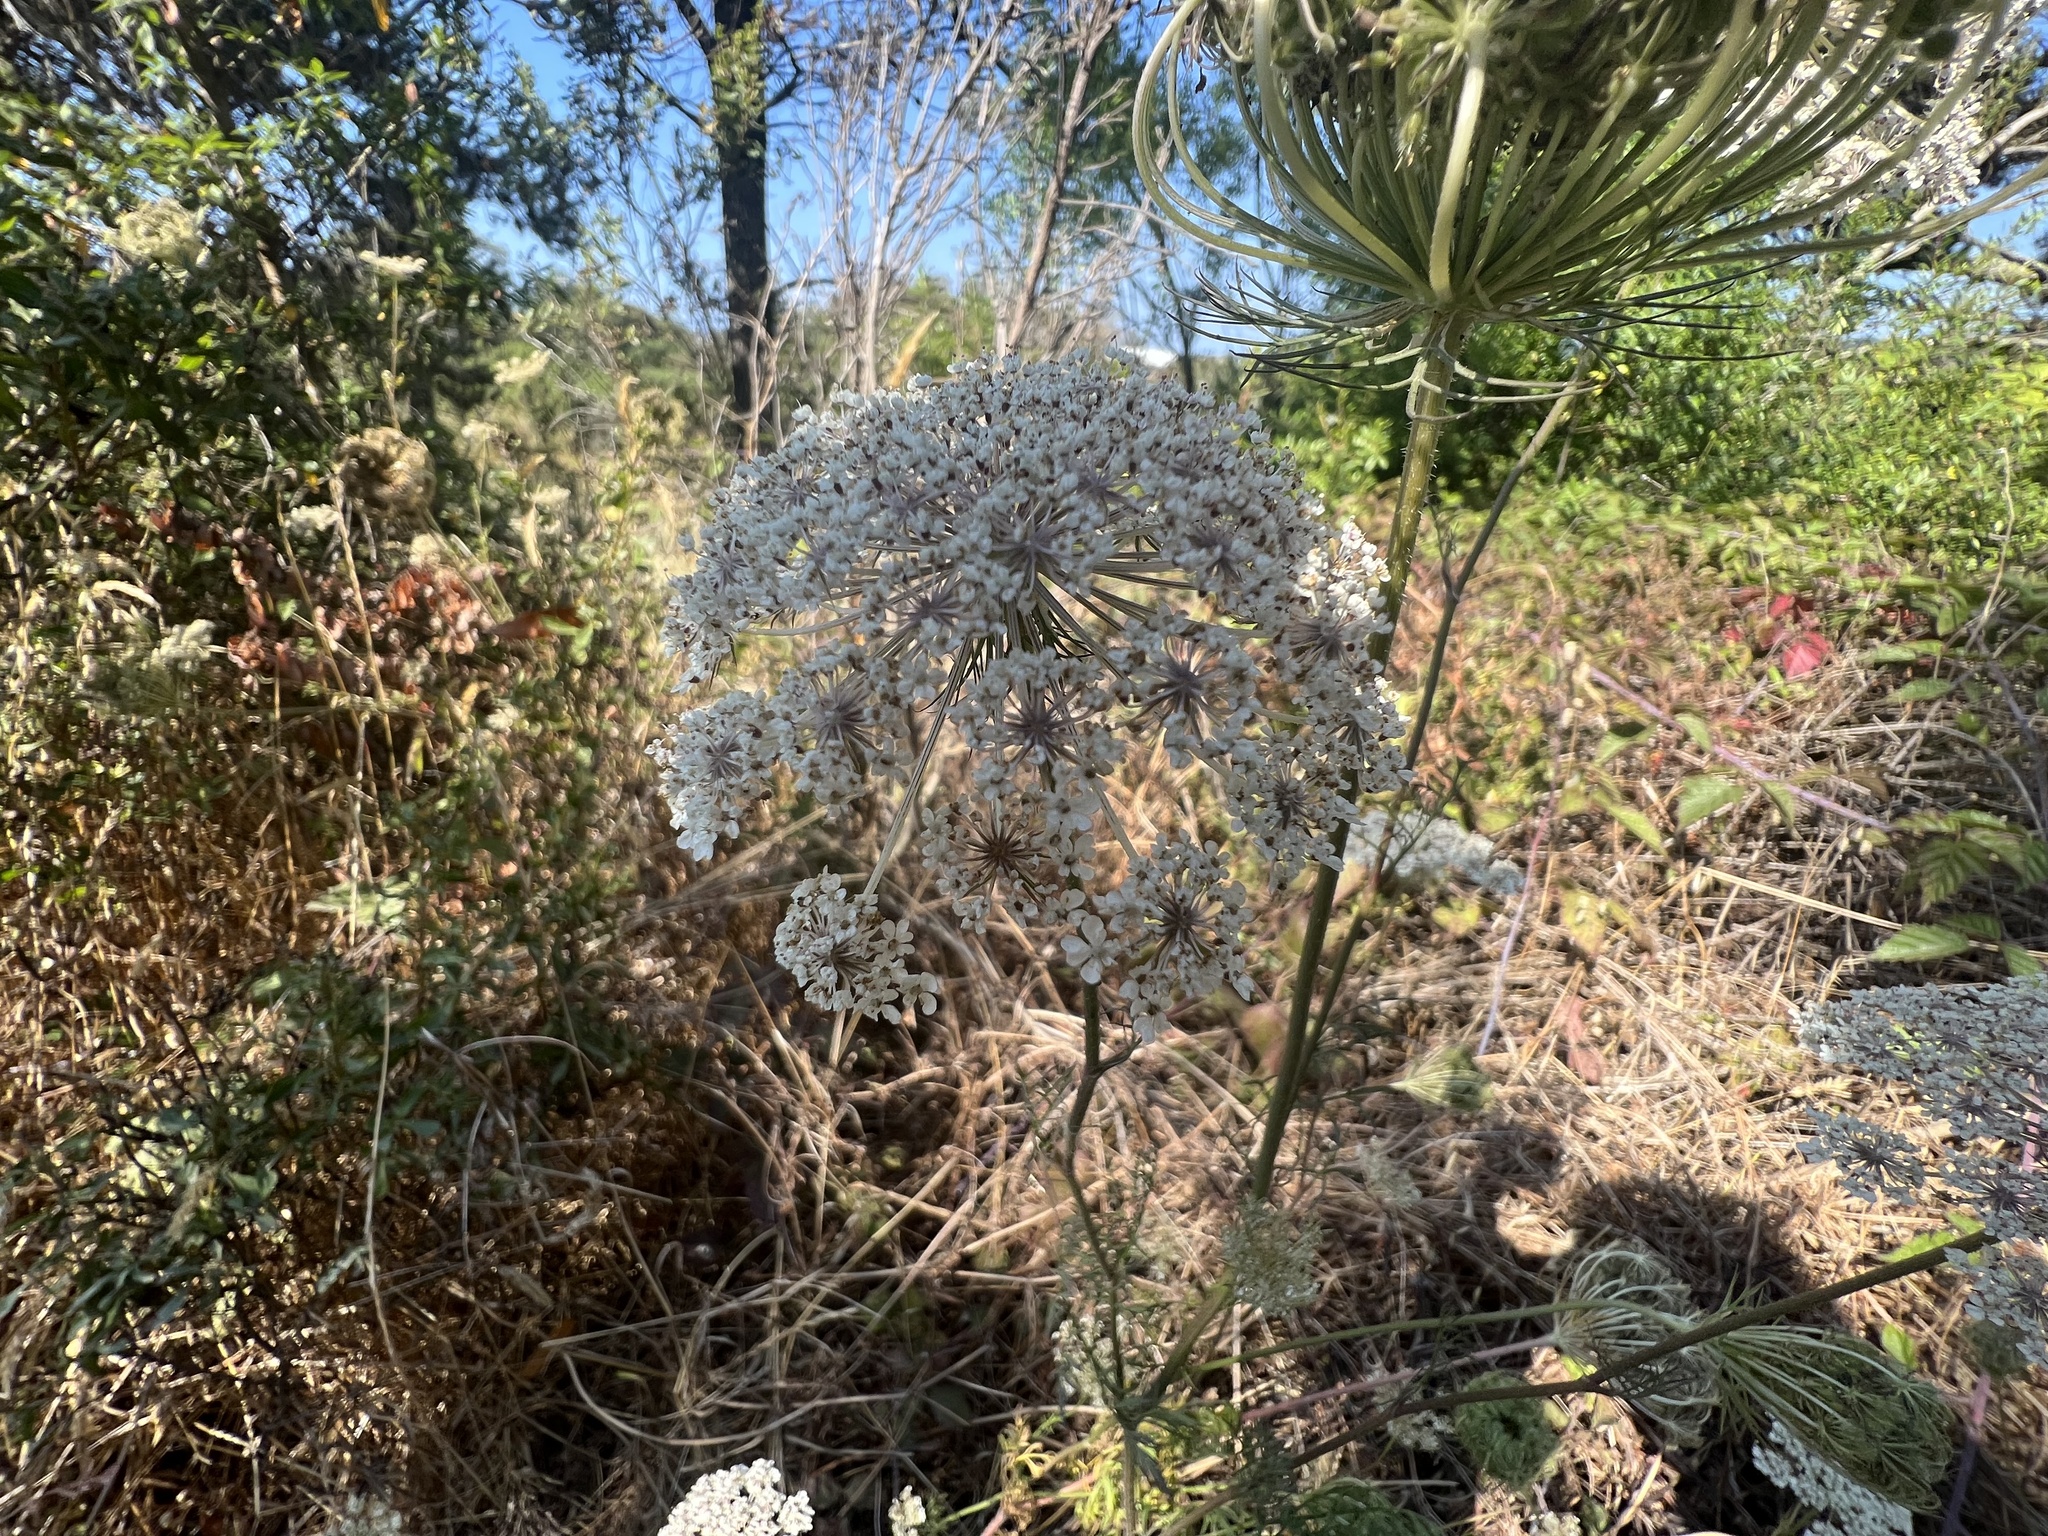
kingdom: Plantae
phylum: Tracheophyta
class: Magnoliopsida
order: Apiales
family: Apiaceae
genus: Daucus
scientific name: Daucus carota
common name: Wild carrot
